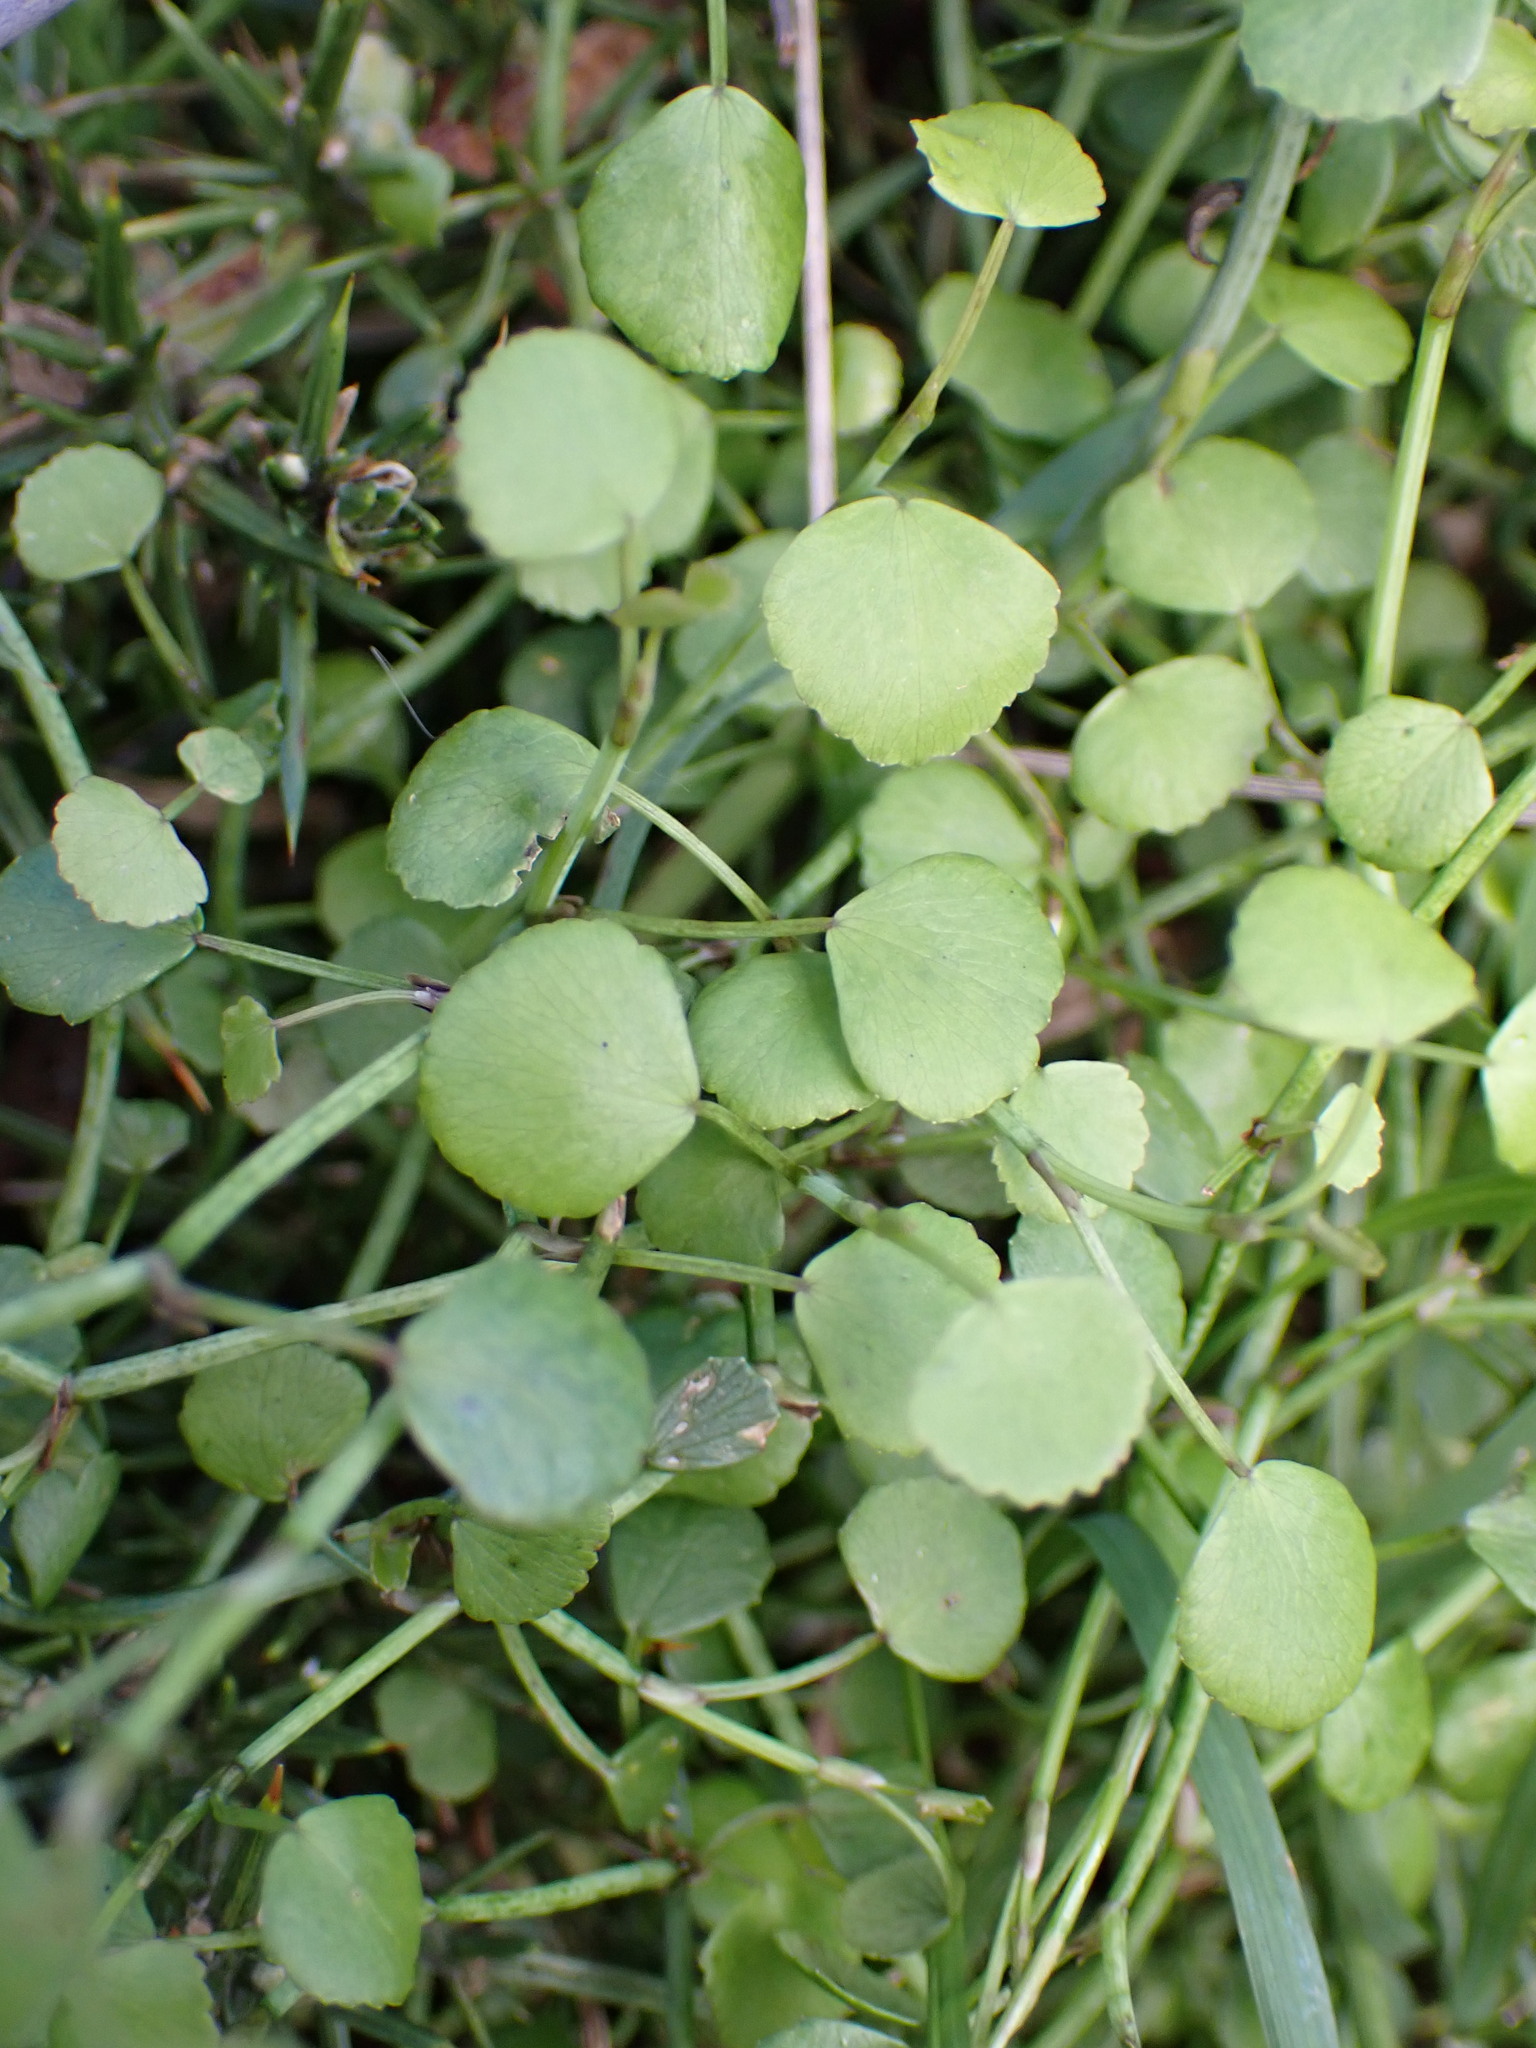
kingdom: Plantae
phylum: Tracheophyta
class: Magnoliopsida
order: Apiales
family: Apiaceae
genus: Scandia
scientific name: Scandia geniculata
